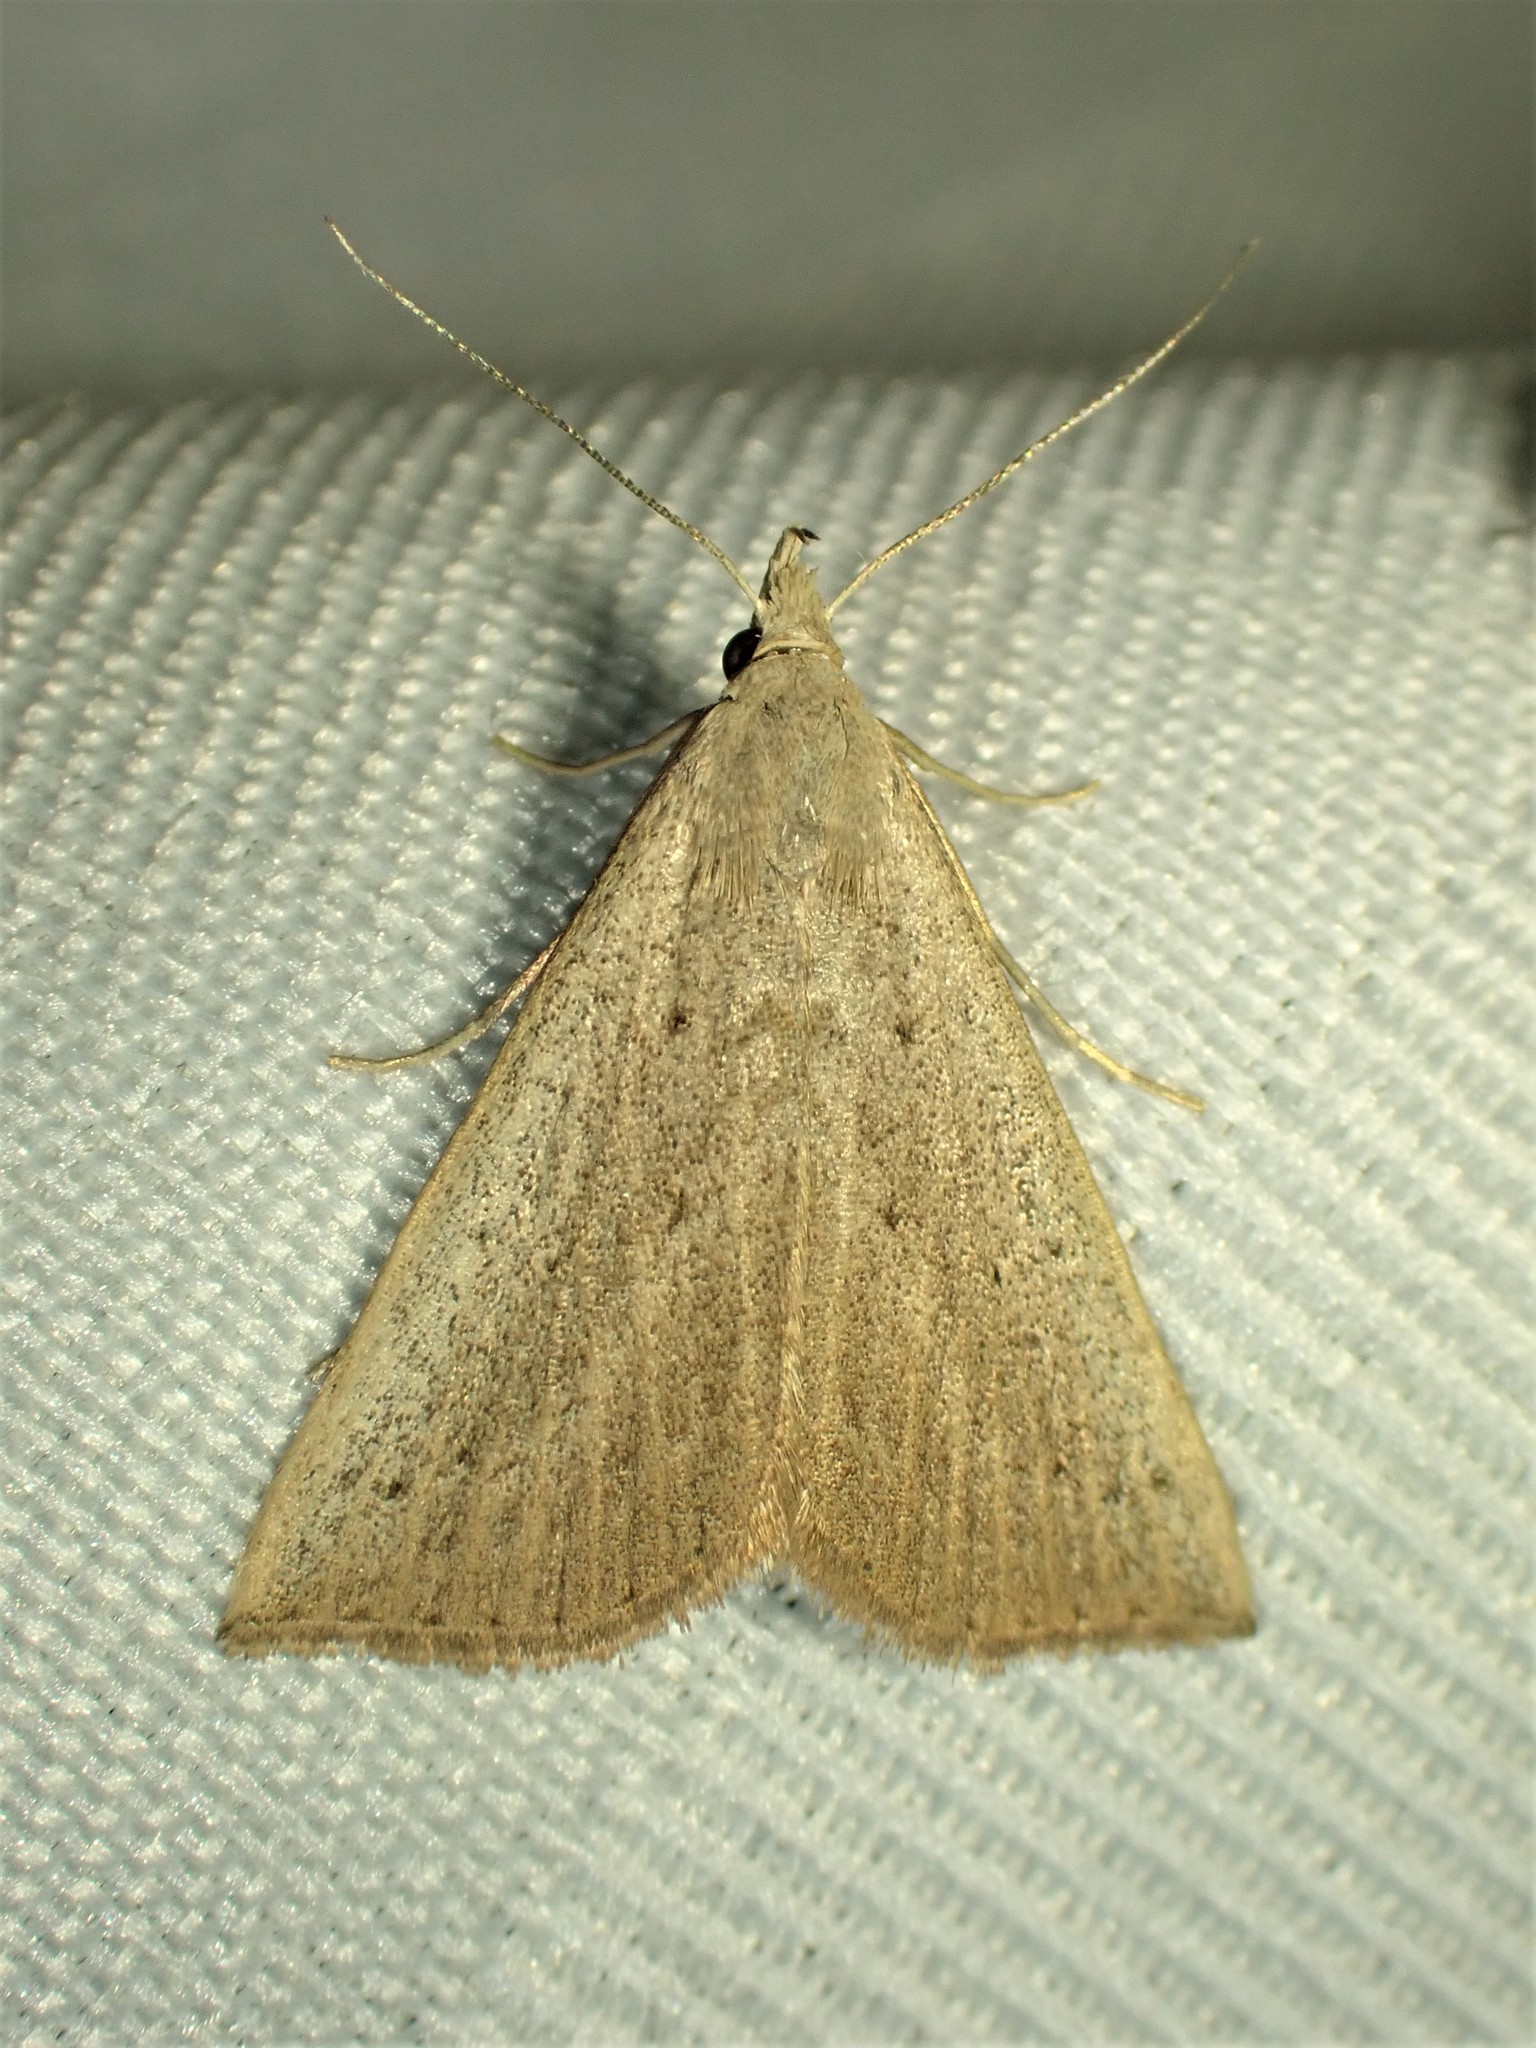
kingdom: Animalia
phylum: Arthropoda
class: Insecta
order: Lepidoptera
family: Erebidae
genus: Macrochilo
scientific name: Macrochilo louisiana
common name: Louisiana macrochilo
